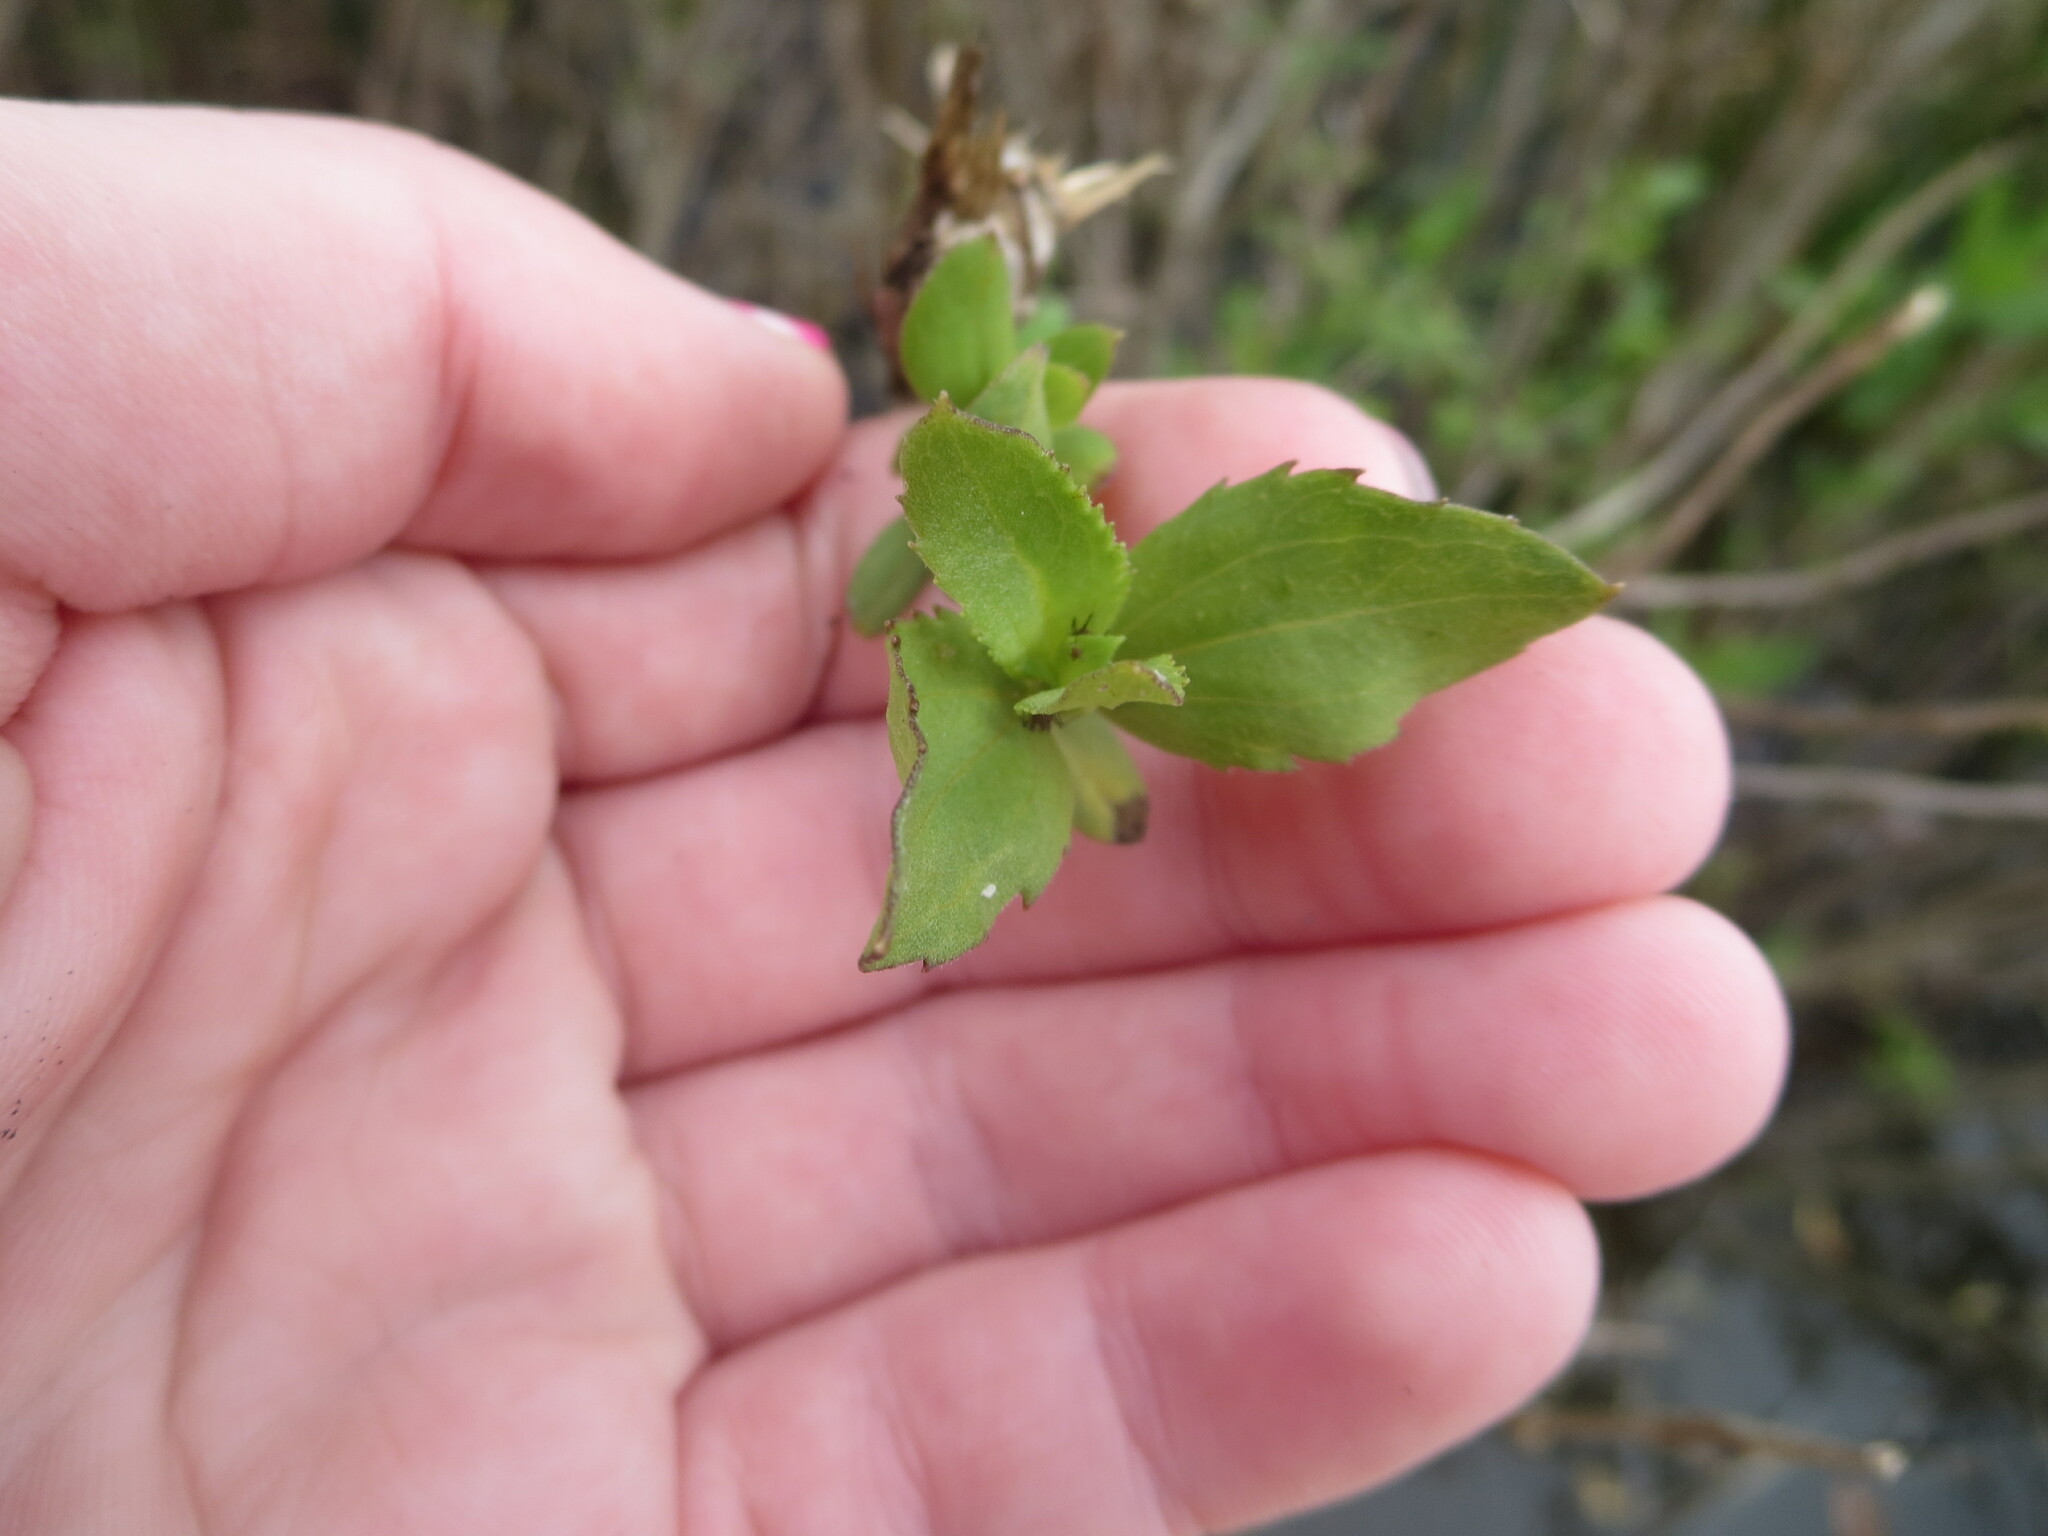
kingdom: Plantae
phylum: Tracheophyta
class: Magnoliopsida
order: Asterales
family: Asteraceae
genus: Baccharis
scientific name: Baccharis halimifolia
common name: Eastern baccharis
